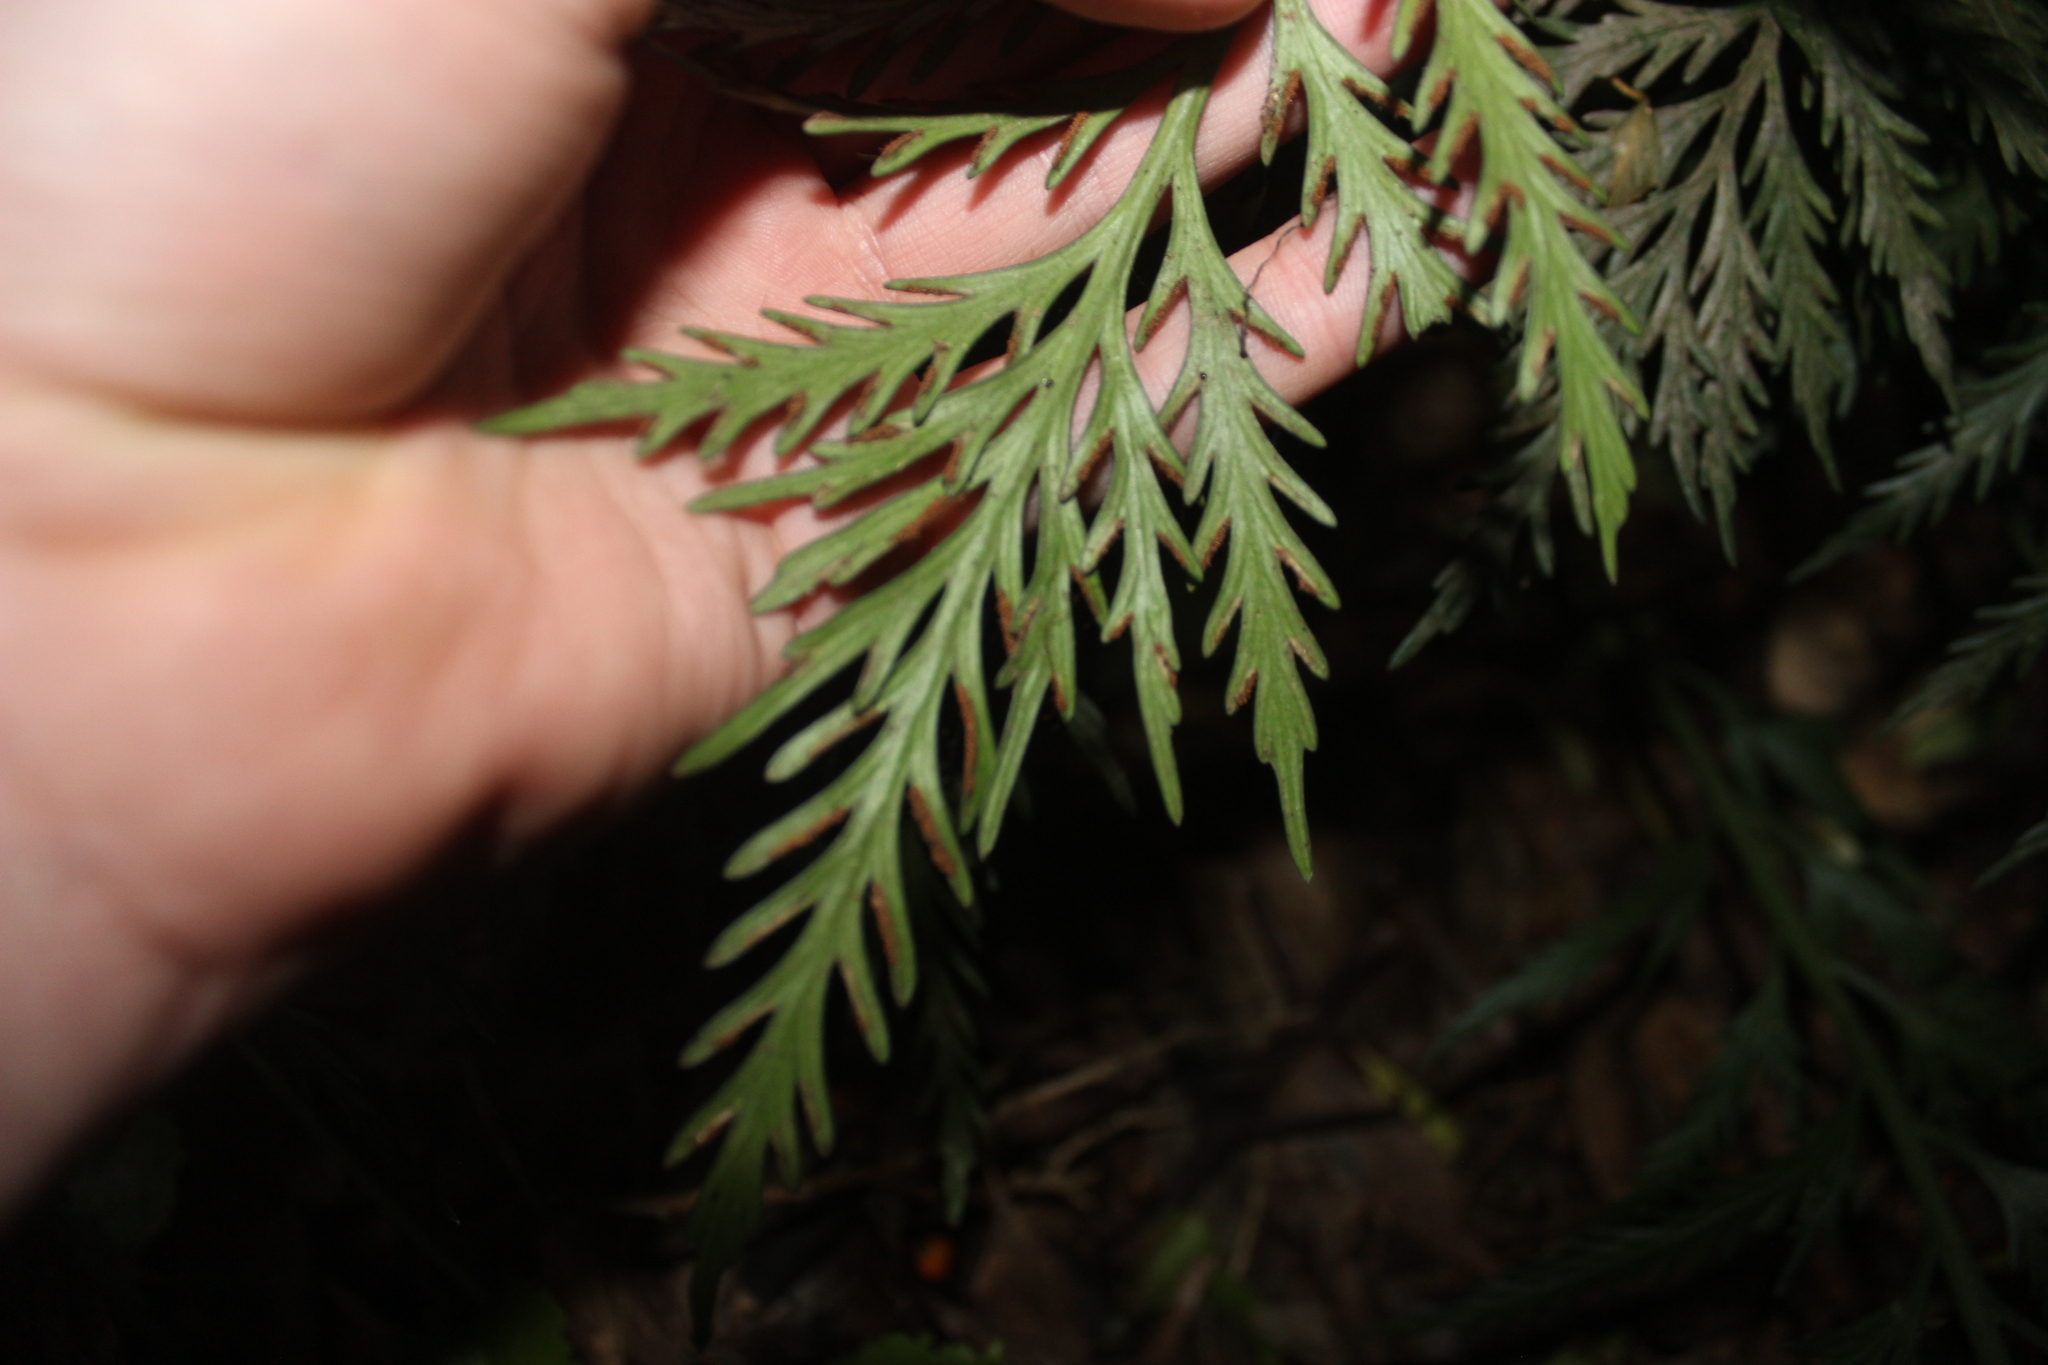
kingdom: Plantae
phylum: Tracheophyta
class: Polypodiopsida
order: Polypodiales
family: Aspleniaceae
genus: Asplenium
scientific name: Asplenium chathamense
